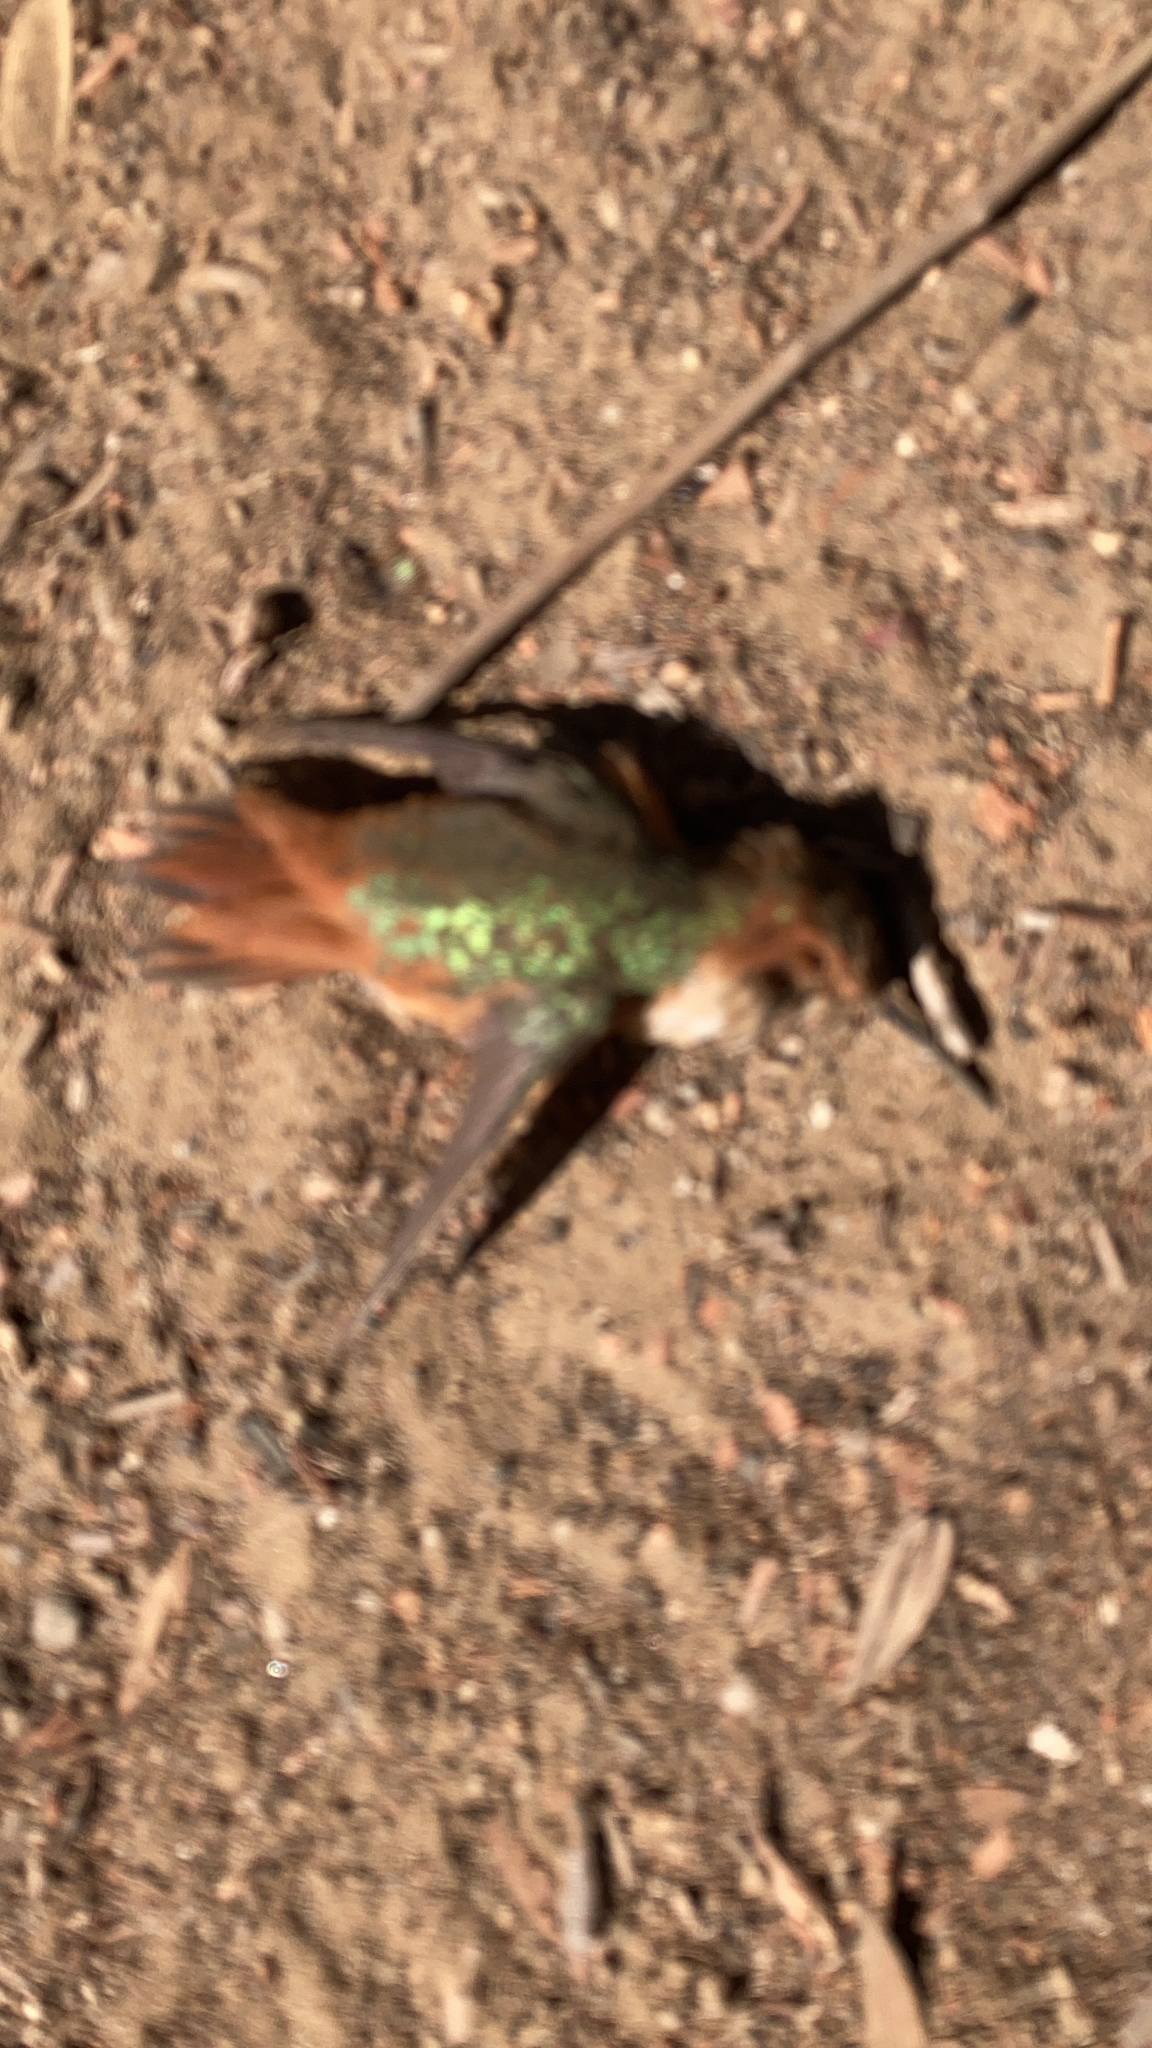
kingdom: Animalia
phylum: Chordata
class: Aves
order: Apodiformes
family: Trochilidae
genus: Selasphorus
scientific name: Selasphorus sasin
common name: Allen's hummingbird
